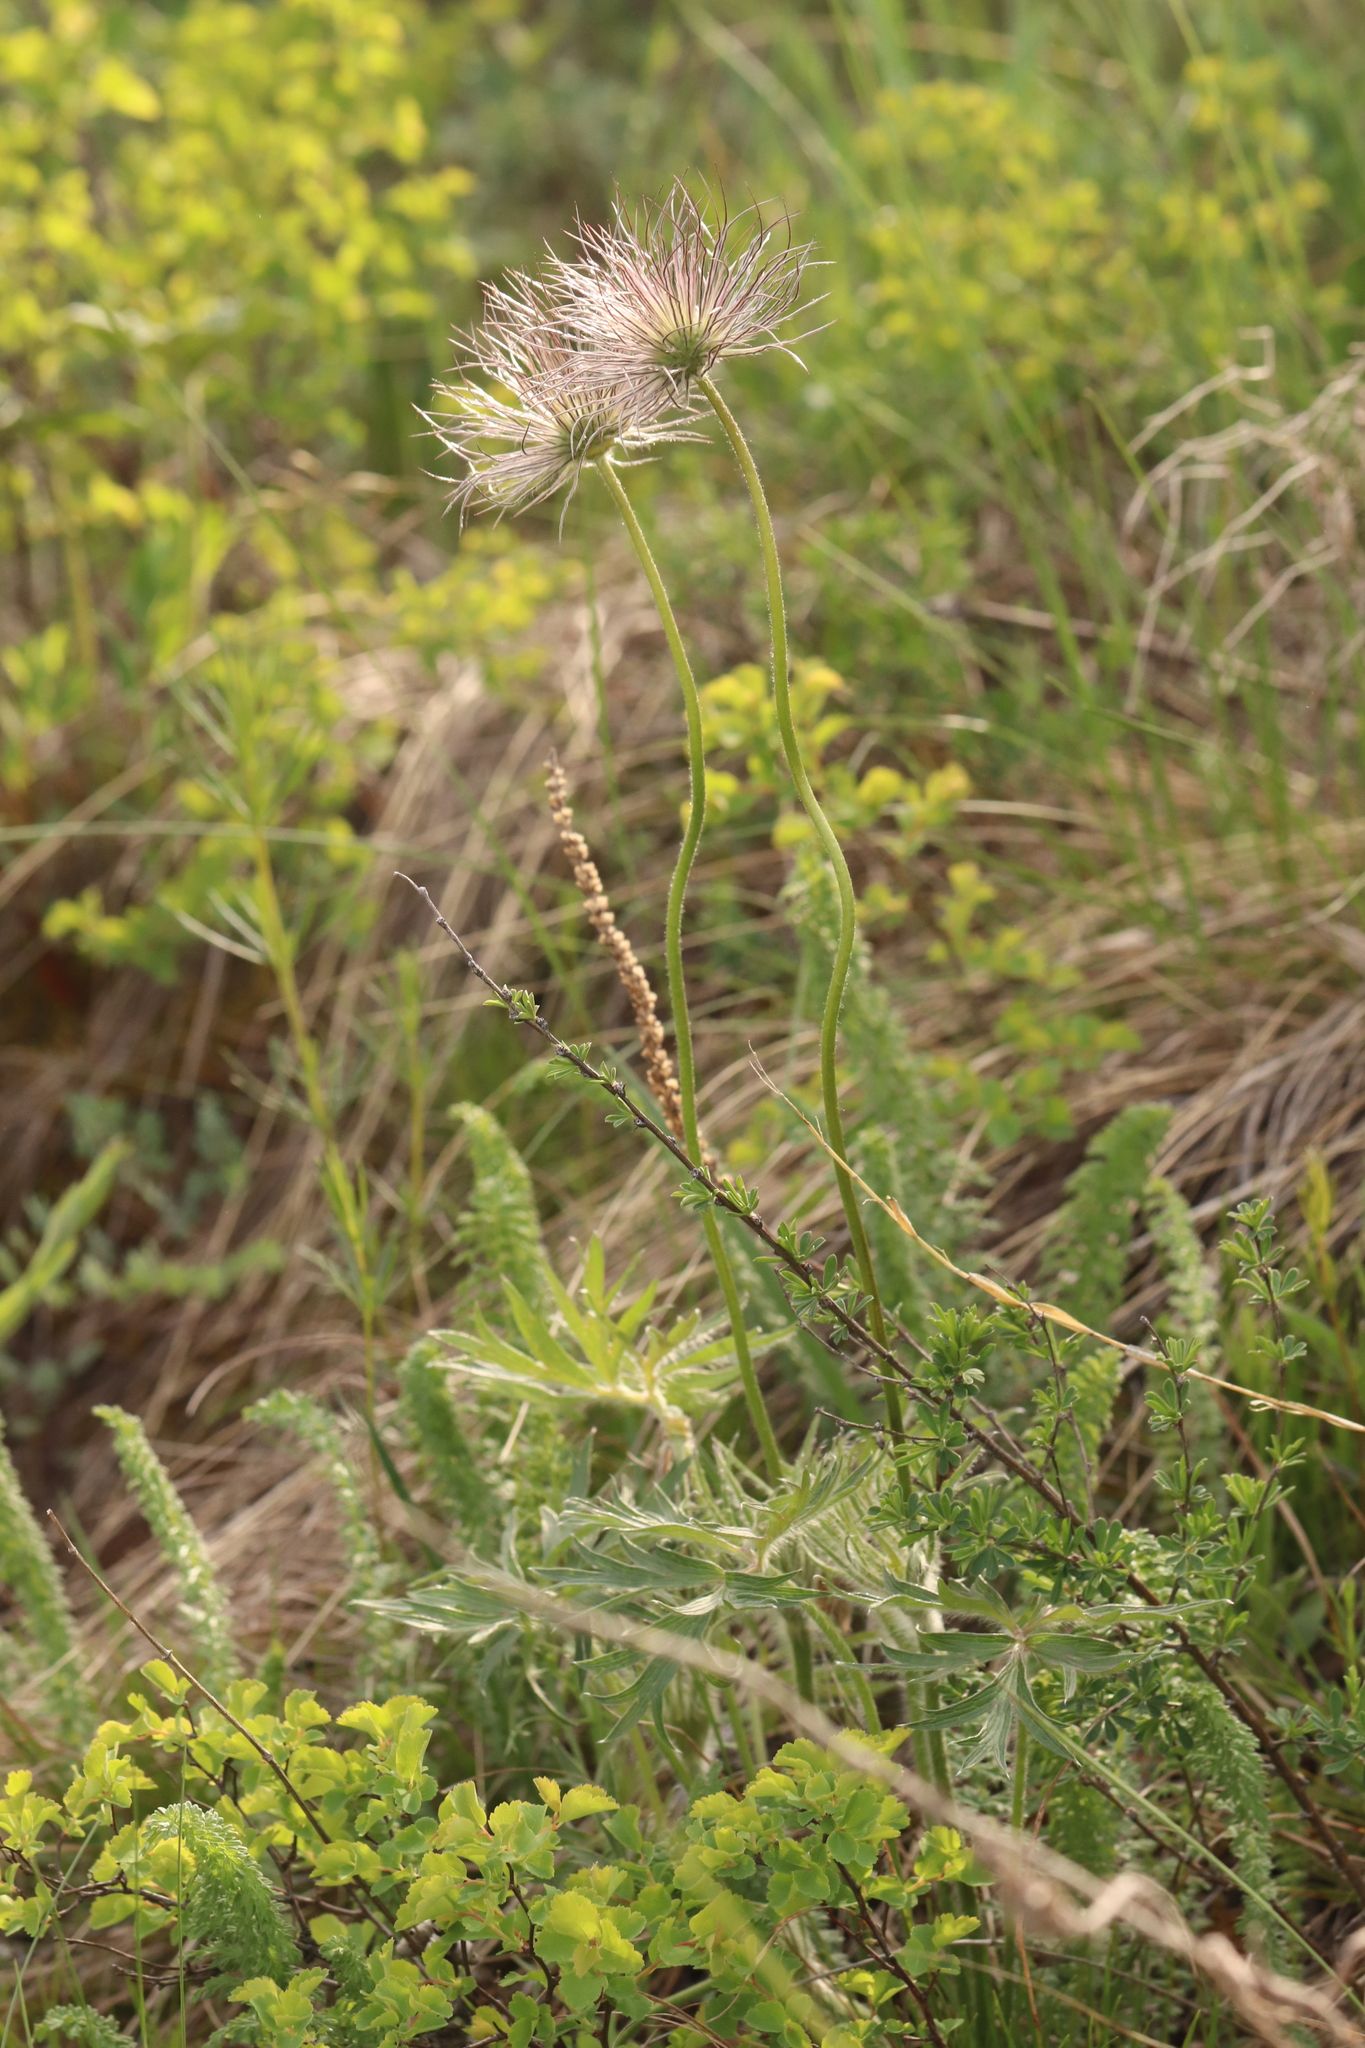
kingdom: Plantae
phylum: Tracheophyta
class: Magnoliopsida
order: Ranunculales
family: Ranunculaceae
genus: Pulsatilla
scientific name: Pulsatilla patens
